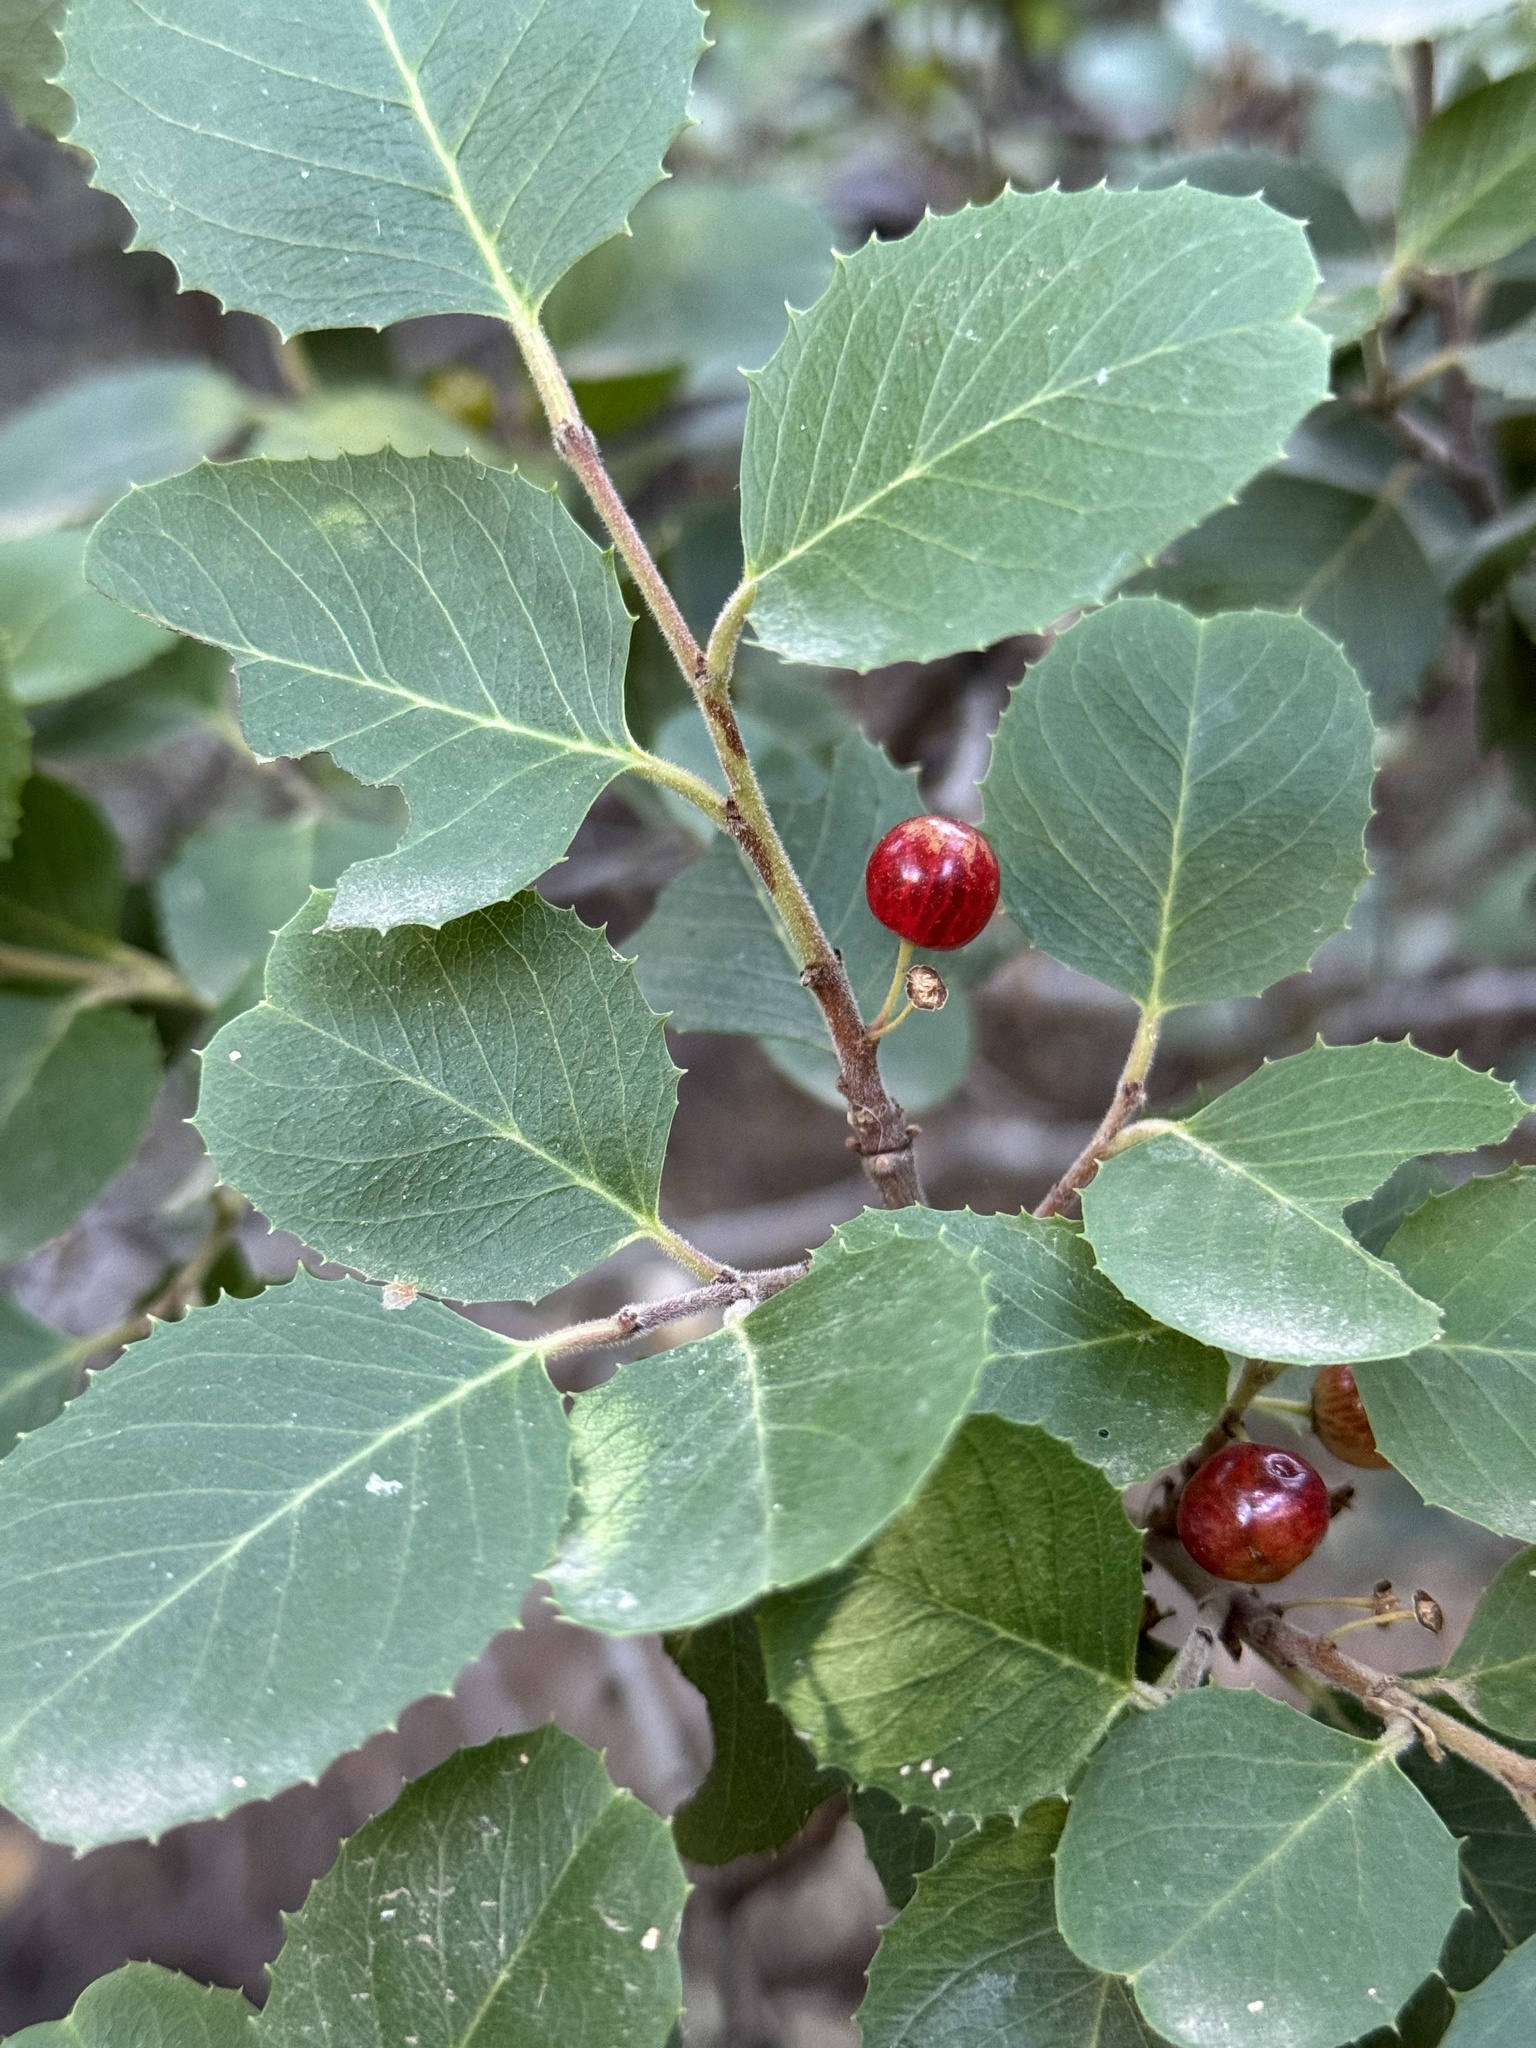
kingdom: Plantae
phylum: Tracheophyta
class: Magnoliopsida
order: Rosales
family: Rhamnaceae
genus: Endotropis
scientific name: Endotropis crocea
